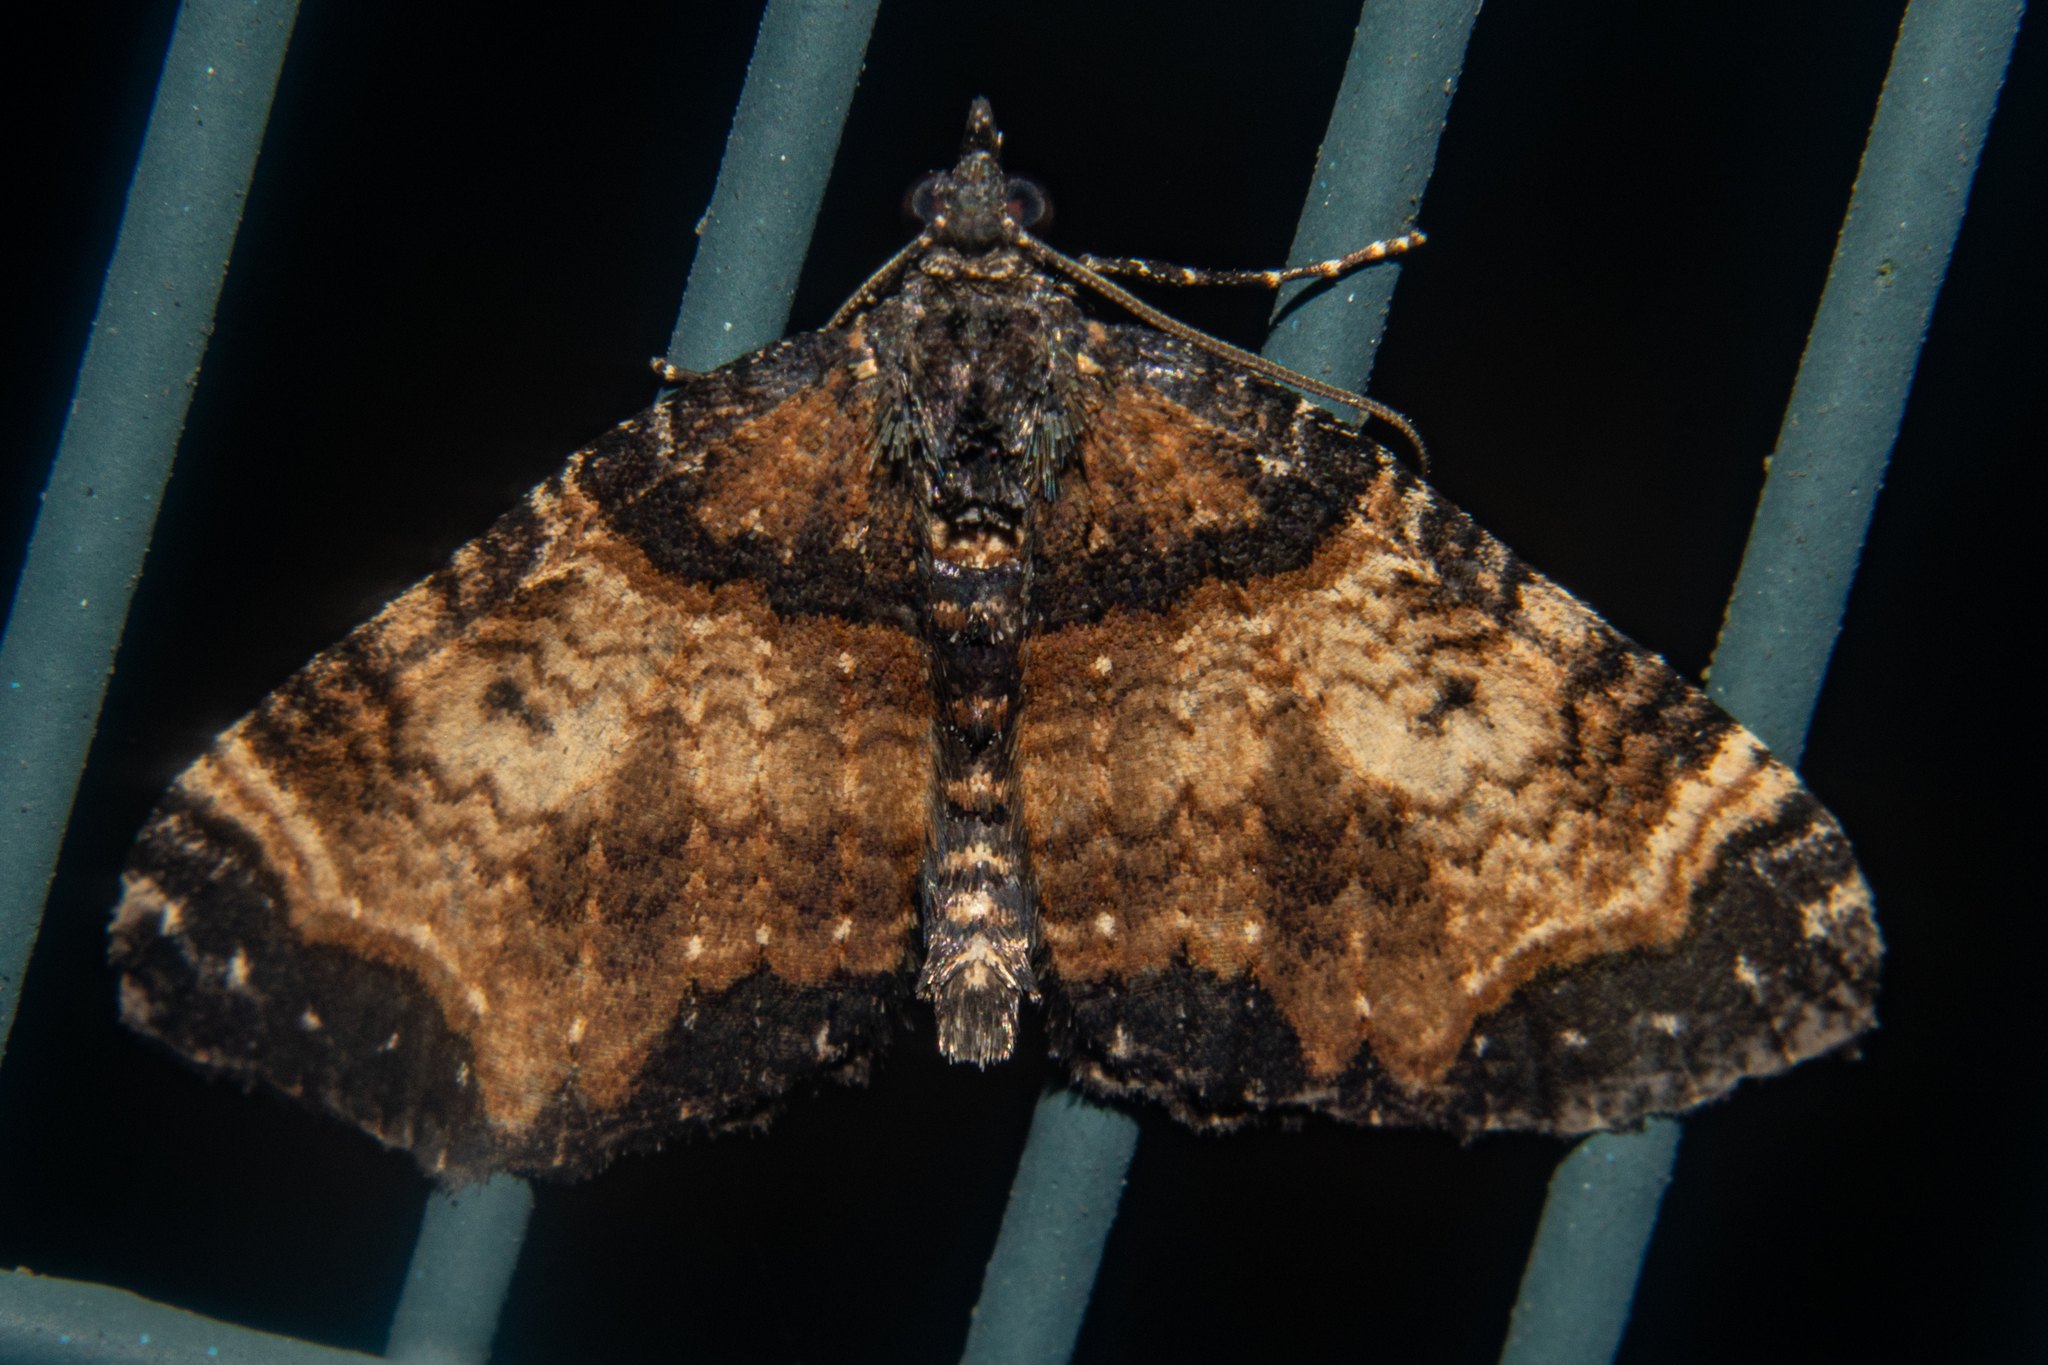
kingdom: Animalia
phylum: Arthropoda
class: Insecta
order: Lepidoptera
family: Geometridae
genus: Hydriomena
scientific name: Hydriomena arida
